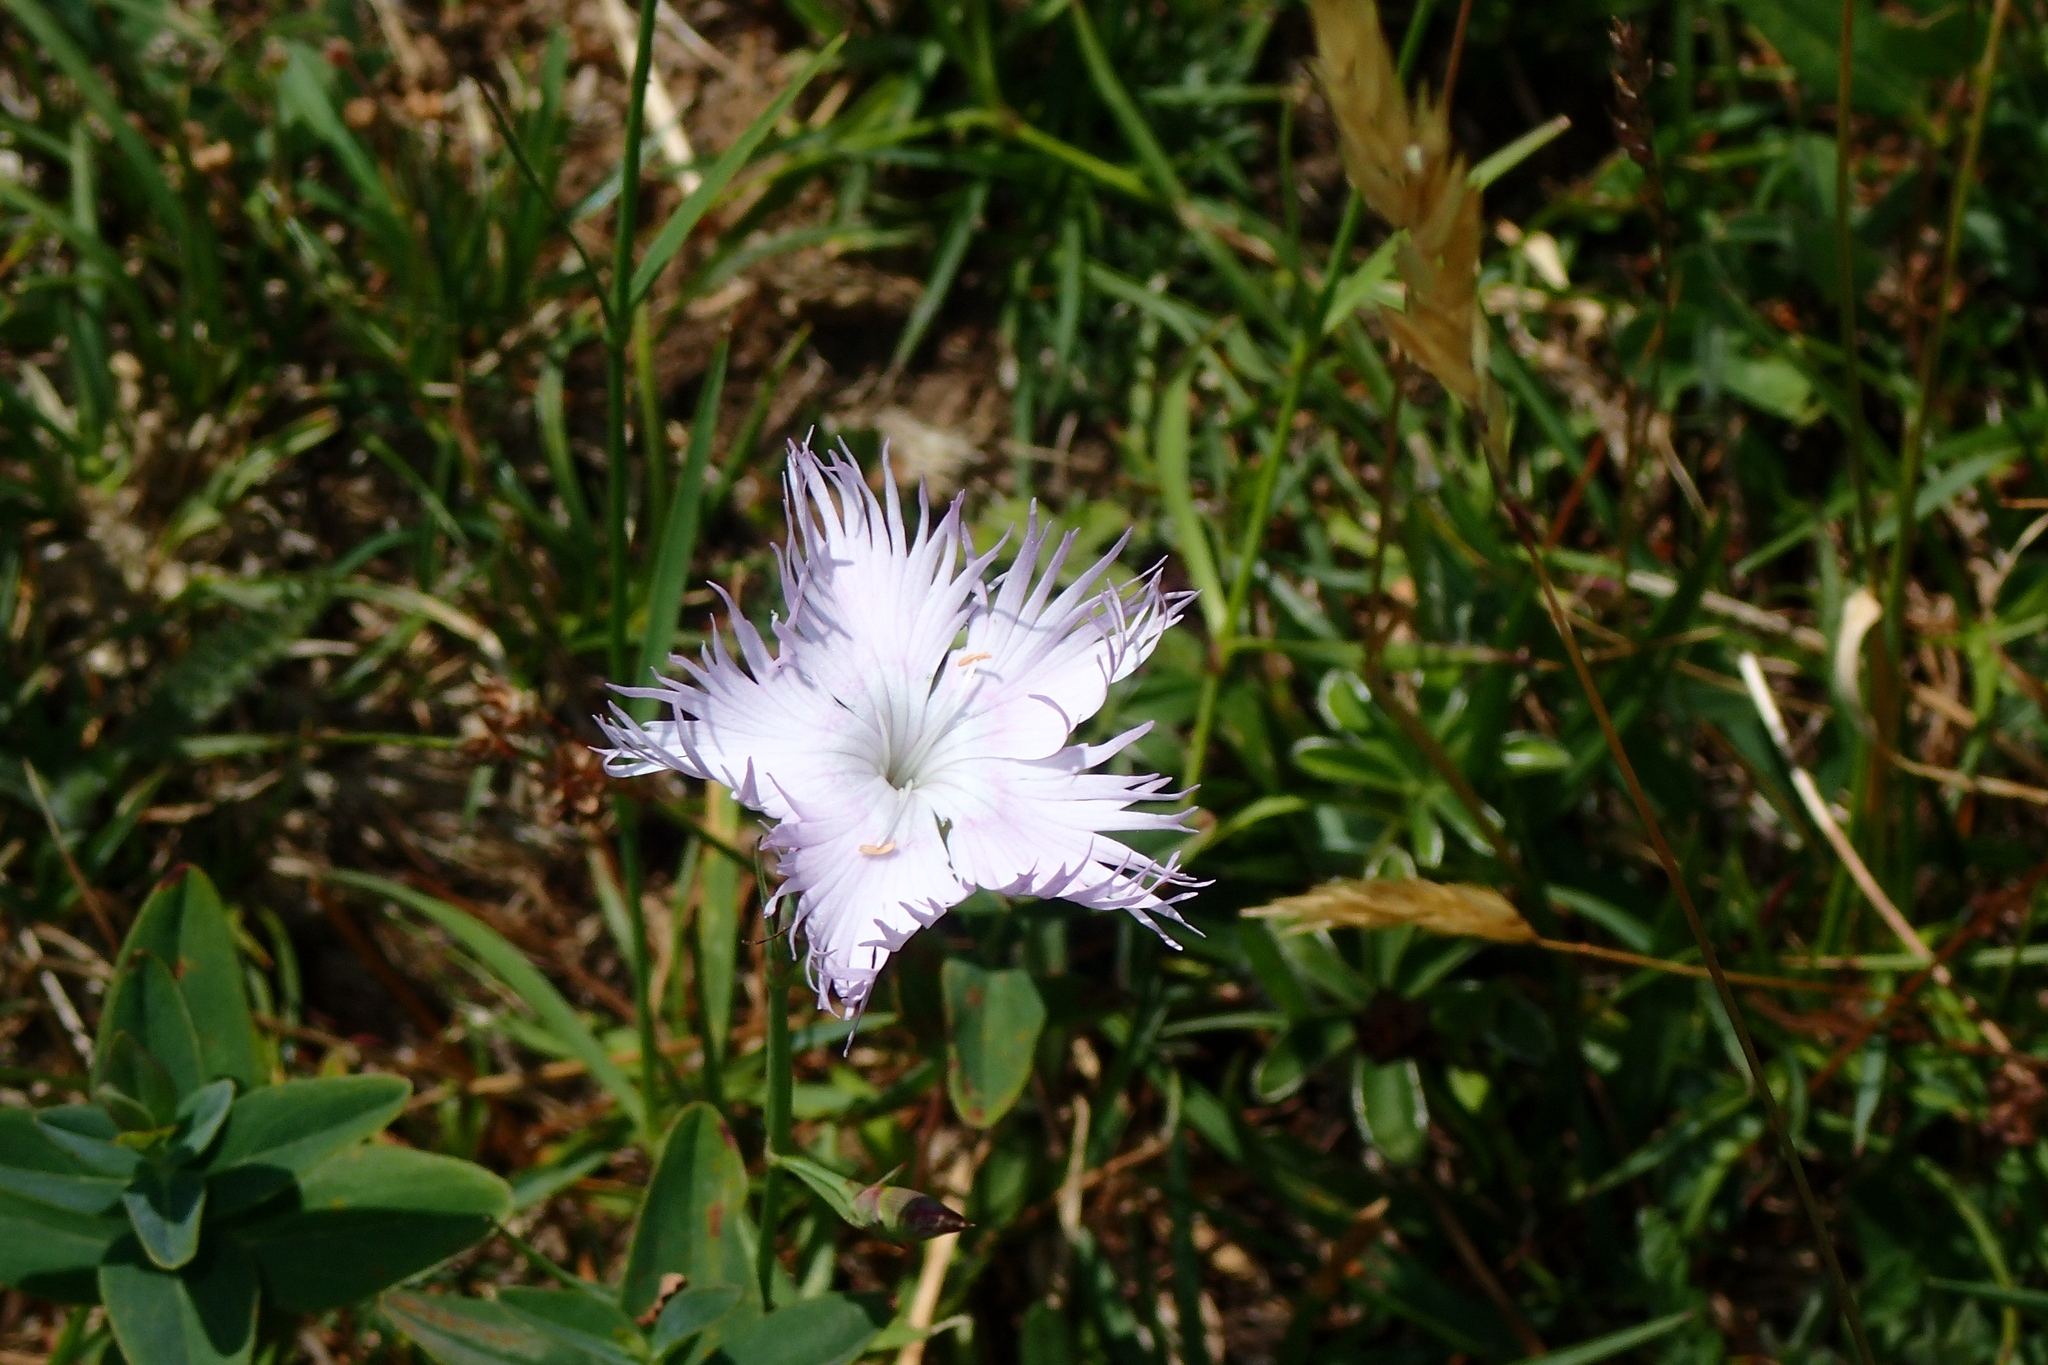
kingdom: Plantae
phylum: Tracheophyta
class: Magnoliopsida
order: Caryophyllales
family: Caryophyllaceae
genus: Dianthus
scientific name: Dianthus hyssopifolius
